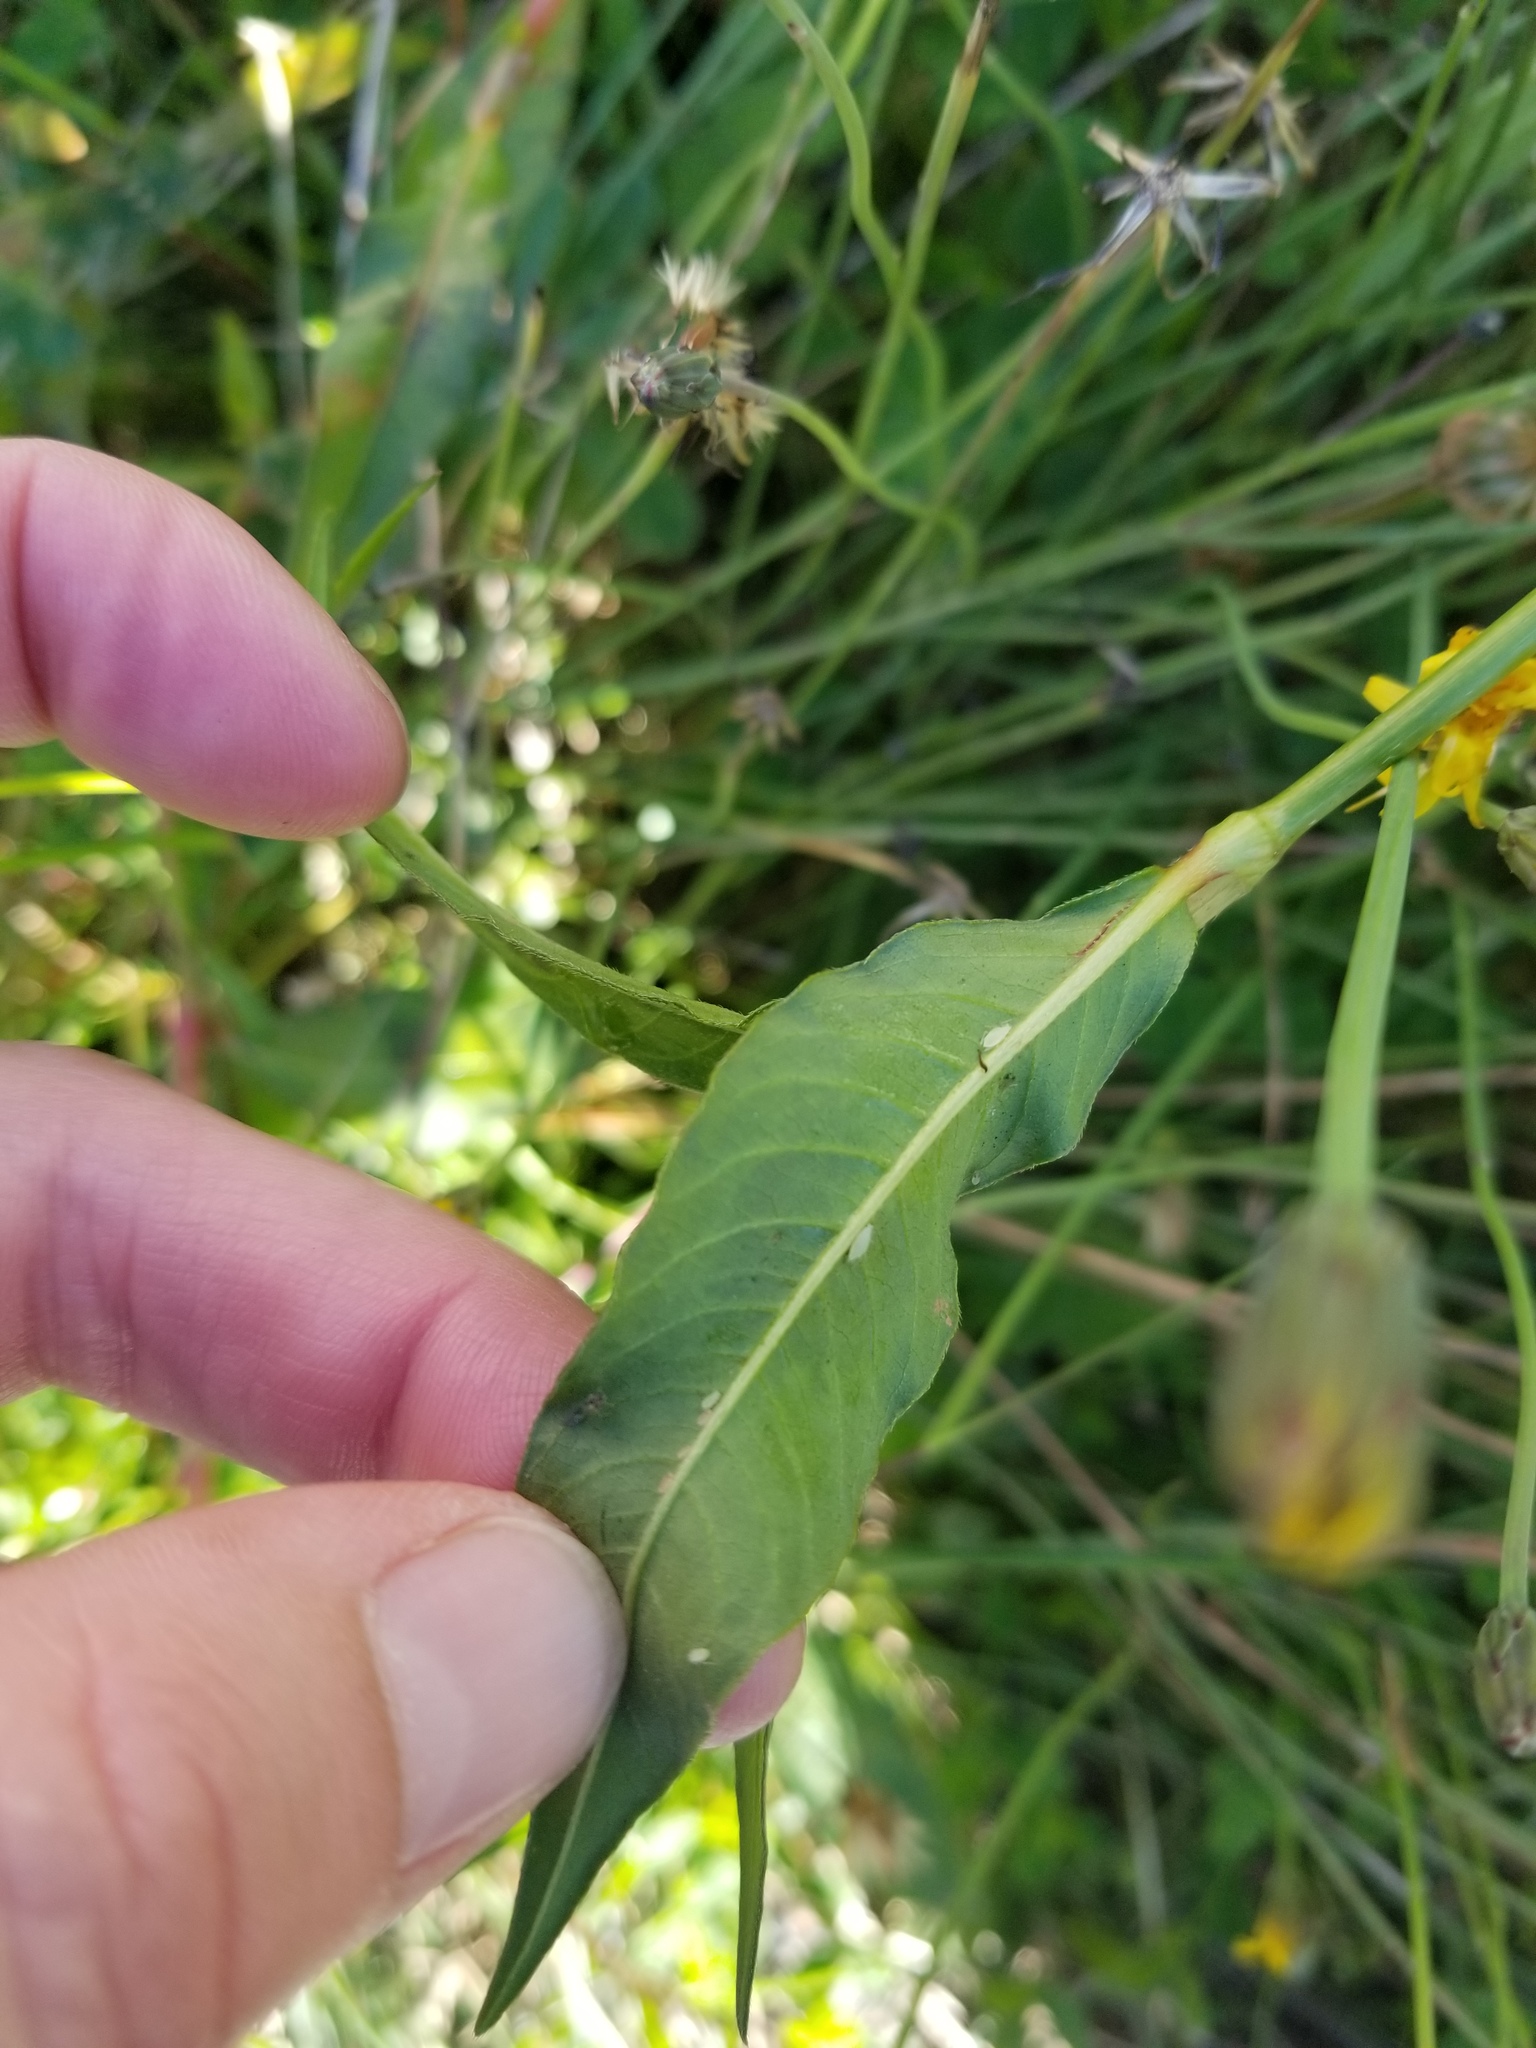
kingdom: Plantae
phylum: Tracheophyta
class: Magnoliopsida
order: Caryophyllales
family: Polygonaceae
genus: Persicaria
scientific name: Persicaria maculosa
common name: Redshank
